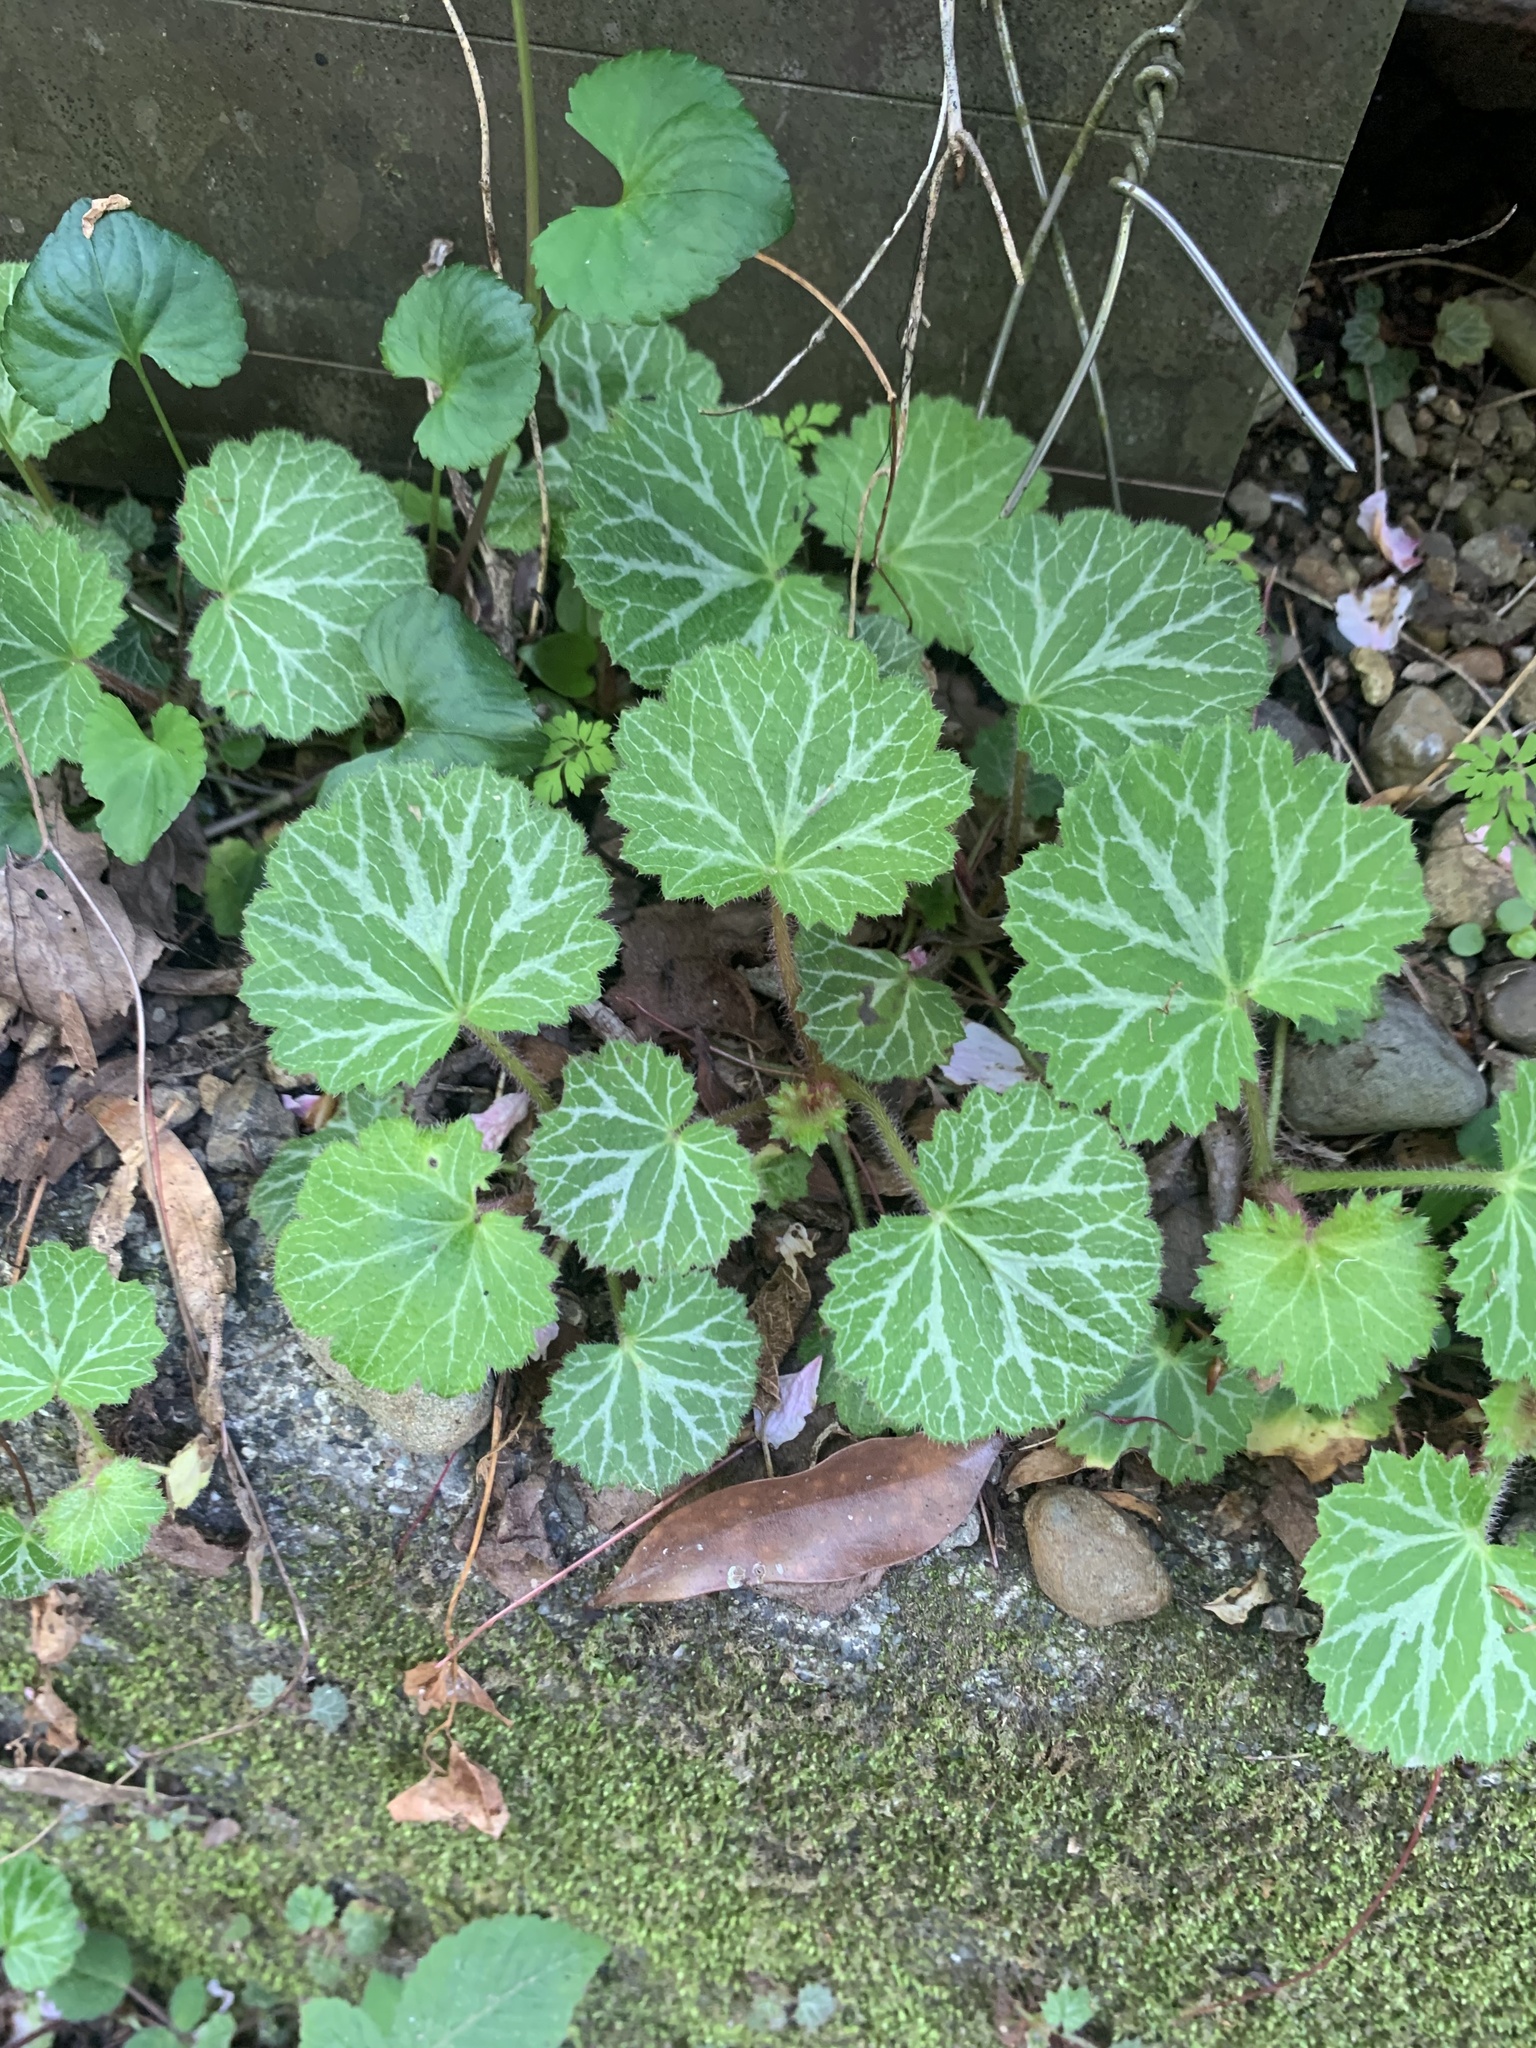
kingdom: Plantae
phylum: Tracheophyta
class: Magnoliopsida
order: Saxifragales
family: Saxifragaceae
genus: Saxifraga
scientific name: Saxifraga stolonifera
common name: Creeping saxifrage
